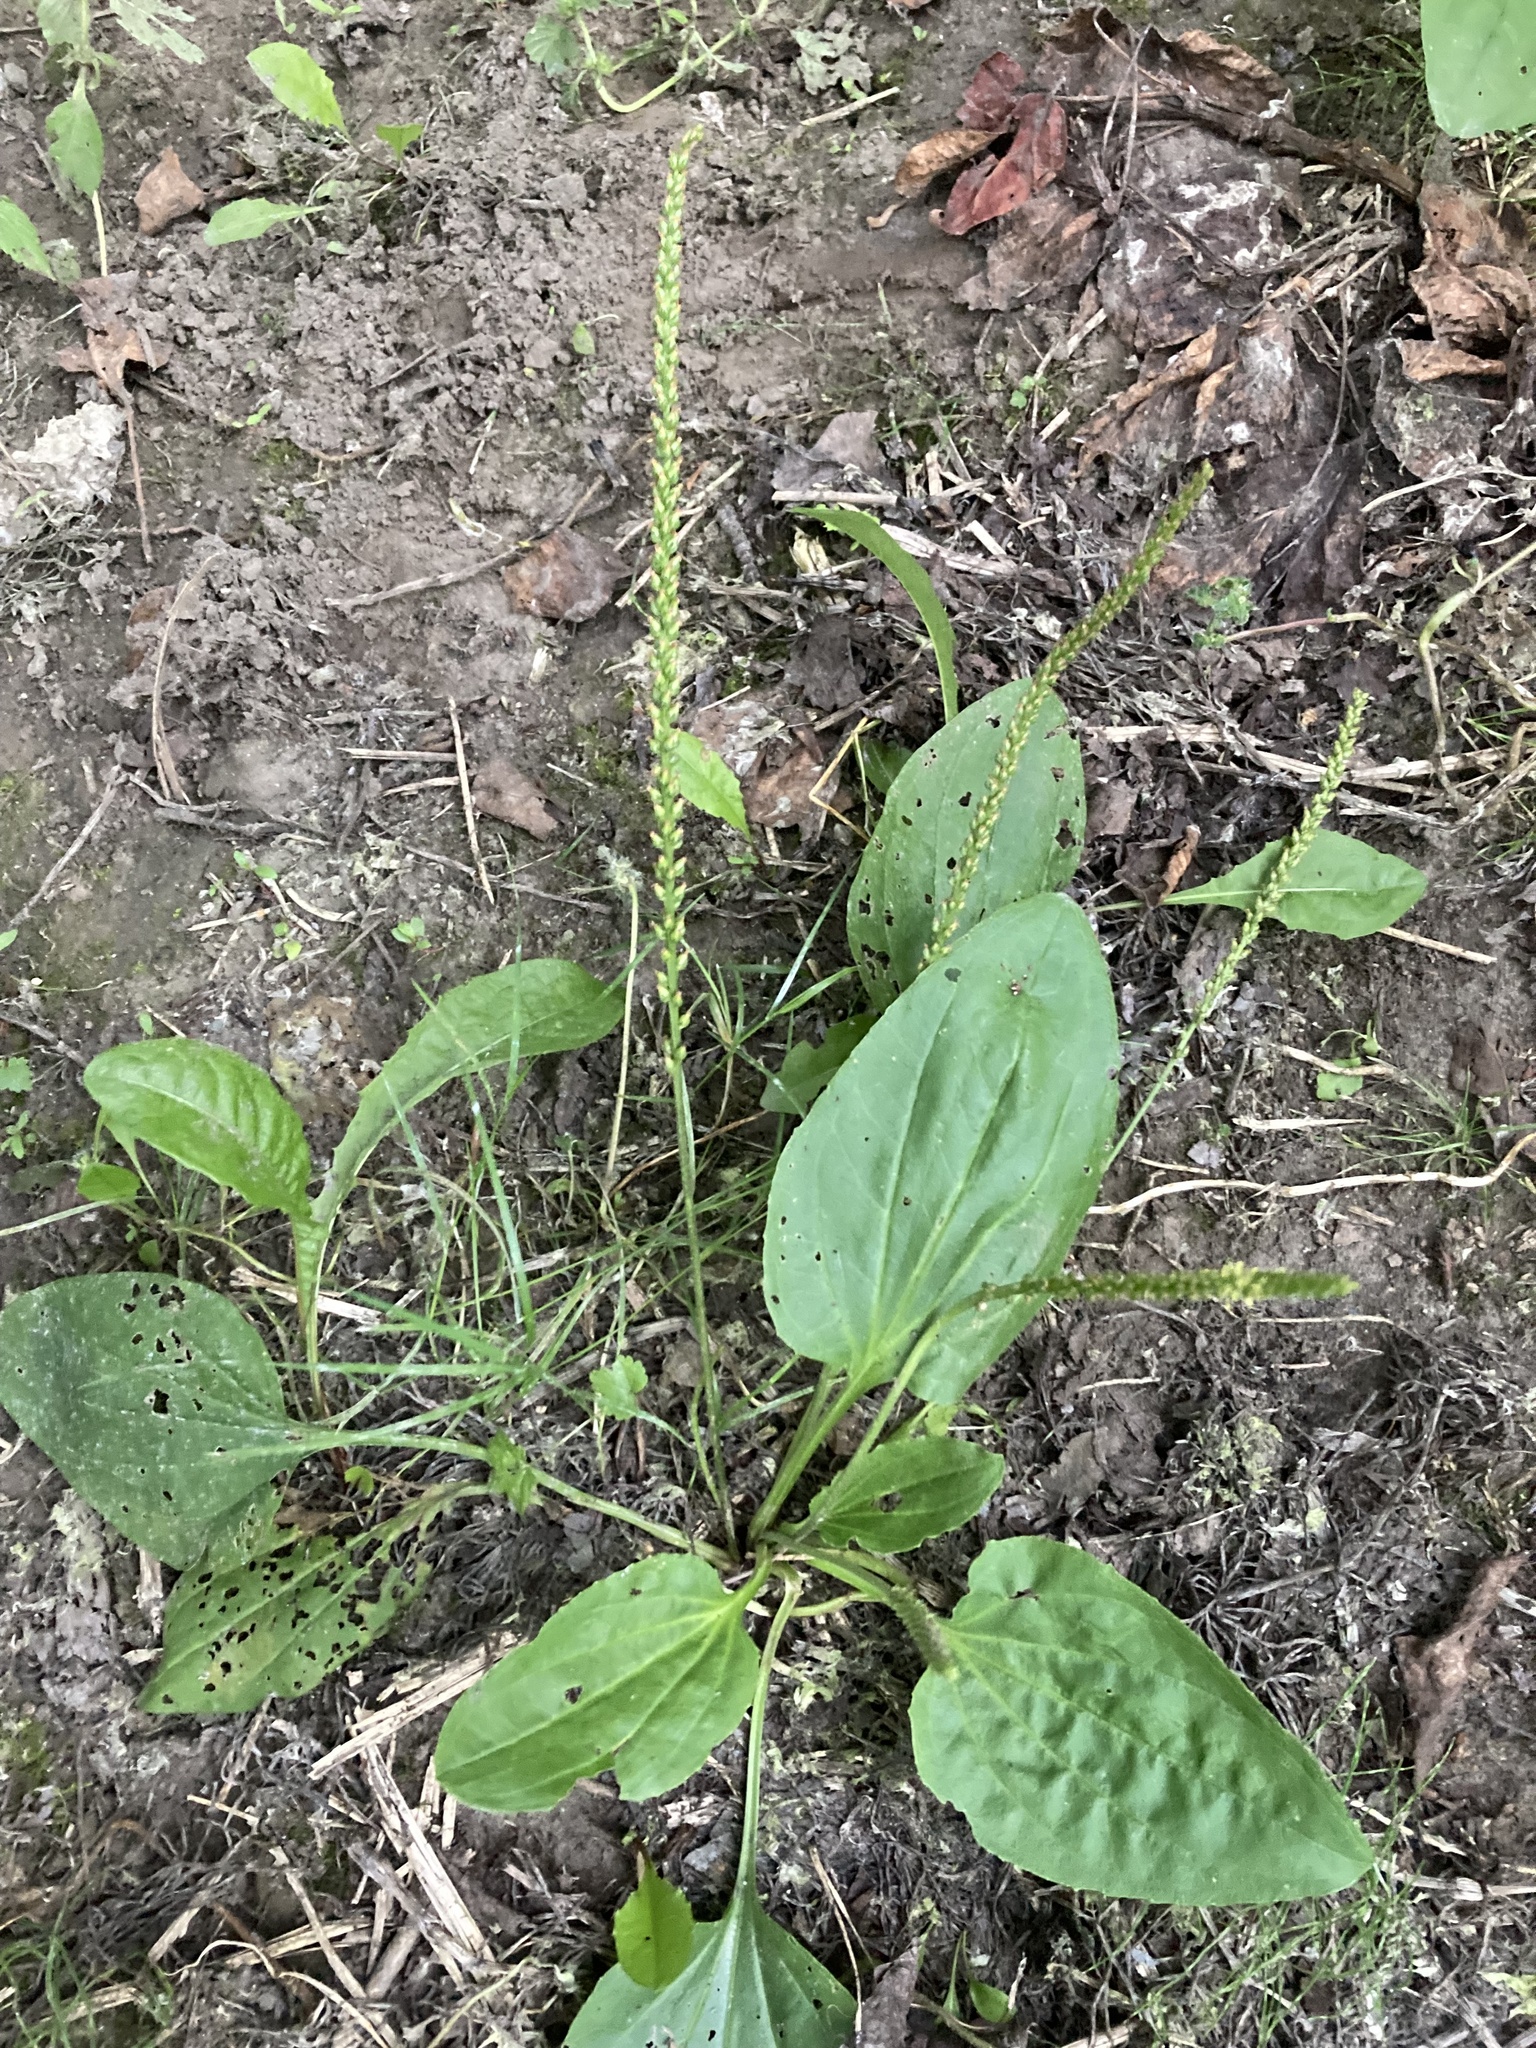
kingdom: Plantae
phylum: Tracheophyta
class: Magnoliopsida
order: Lamiales
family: Plantaginaceae
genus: Plantago
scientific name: Plantago major
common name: Common plantain
